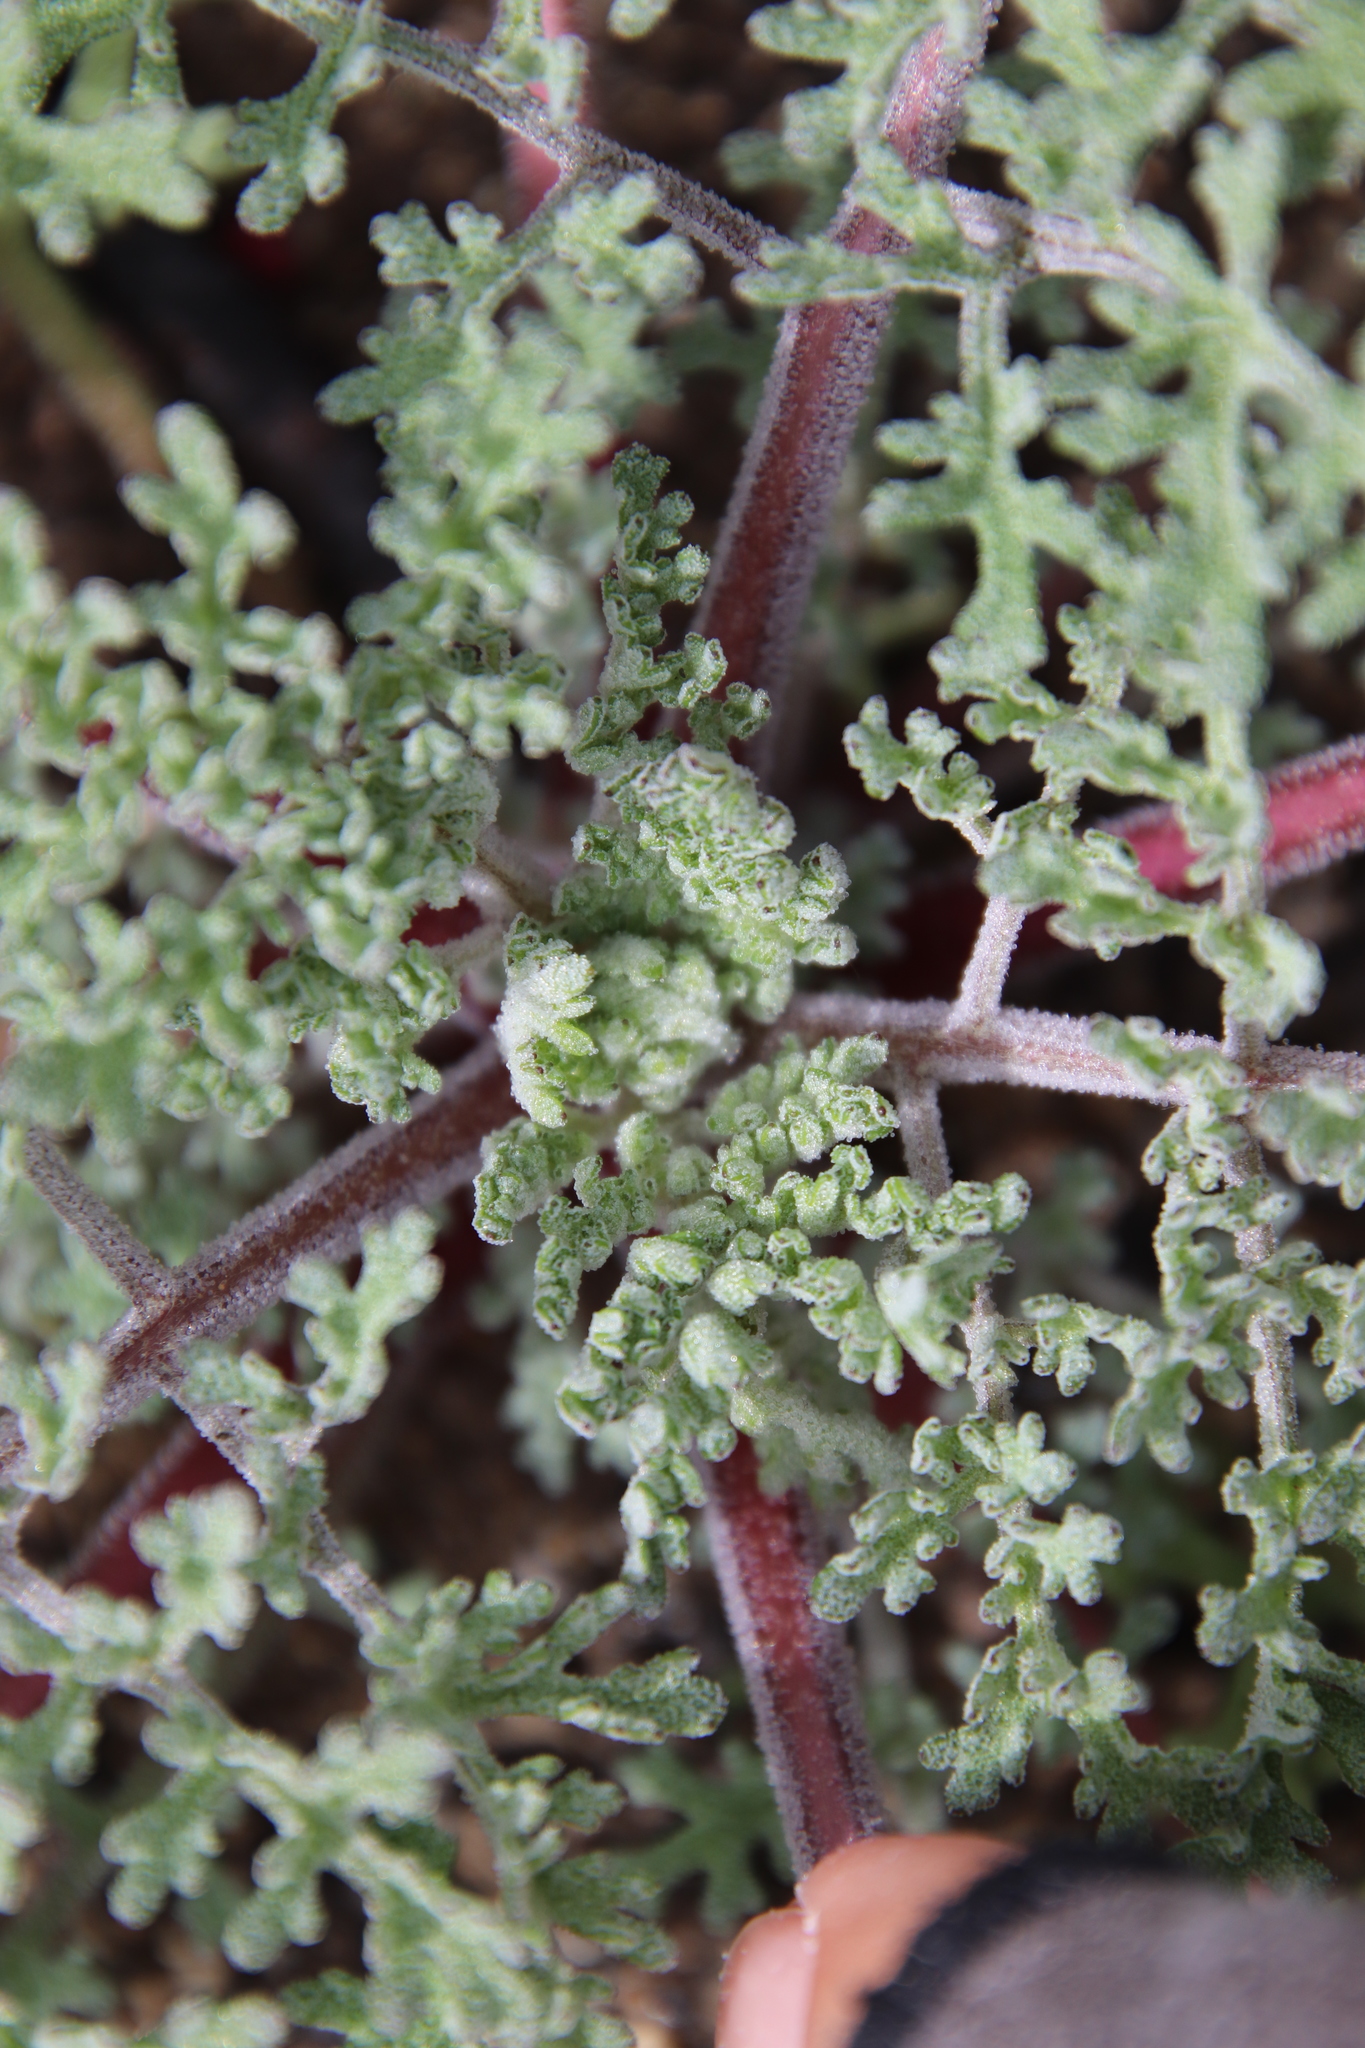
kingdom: Plantae
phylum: Tracheophyta
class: Magnoliopsida
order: Asterales
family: Asteraceae
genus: Chaenactis
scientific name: Chaenactis artemisiifolia
